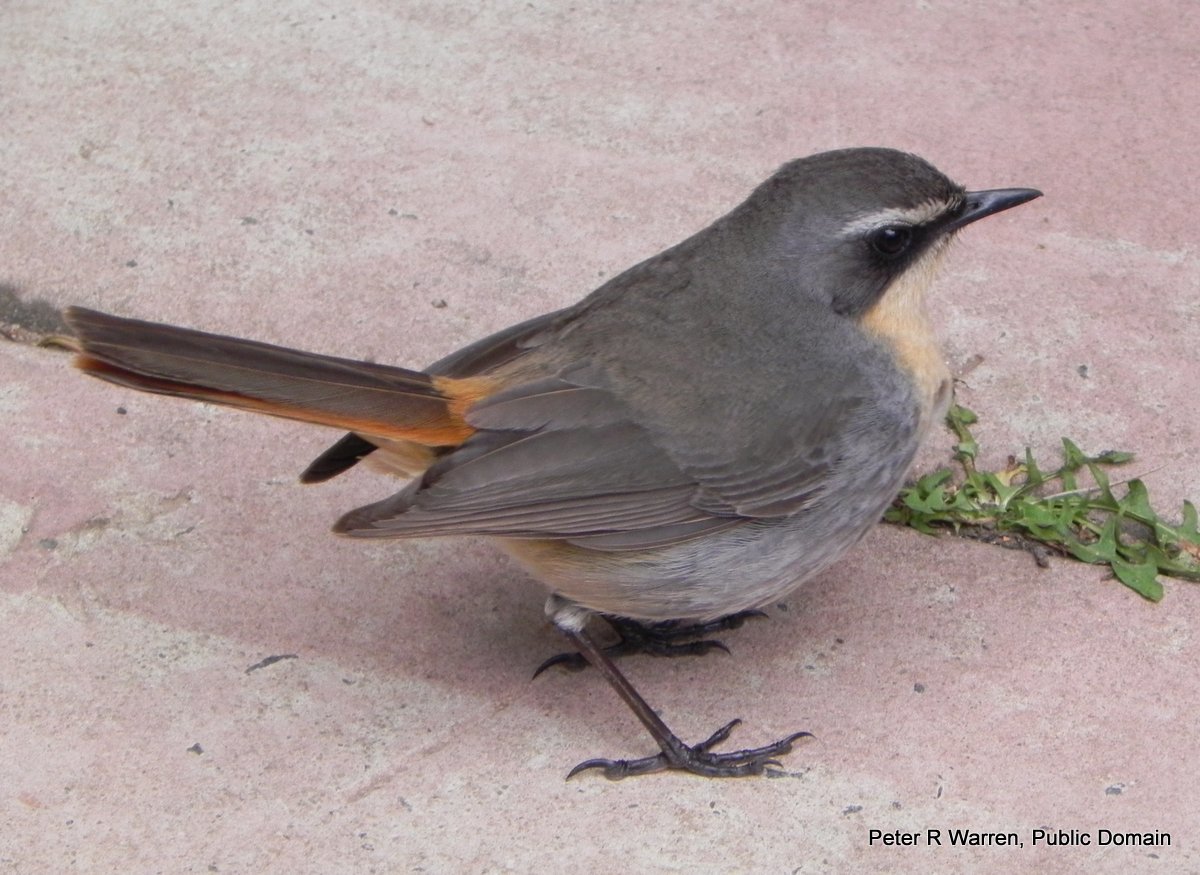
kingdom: Animalia
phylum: Chordata
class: Aves
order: Passeriformes
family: Muscicapidae
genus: Cossypha
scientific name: Cossypha caffra
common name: Cape robin-chat
